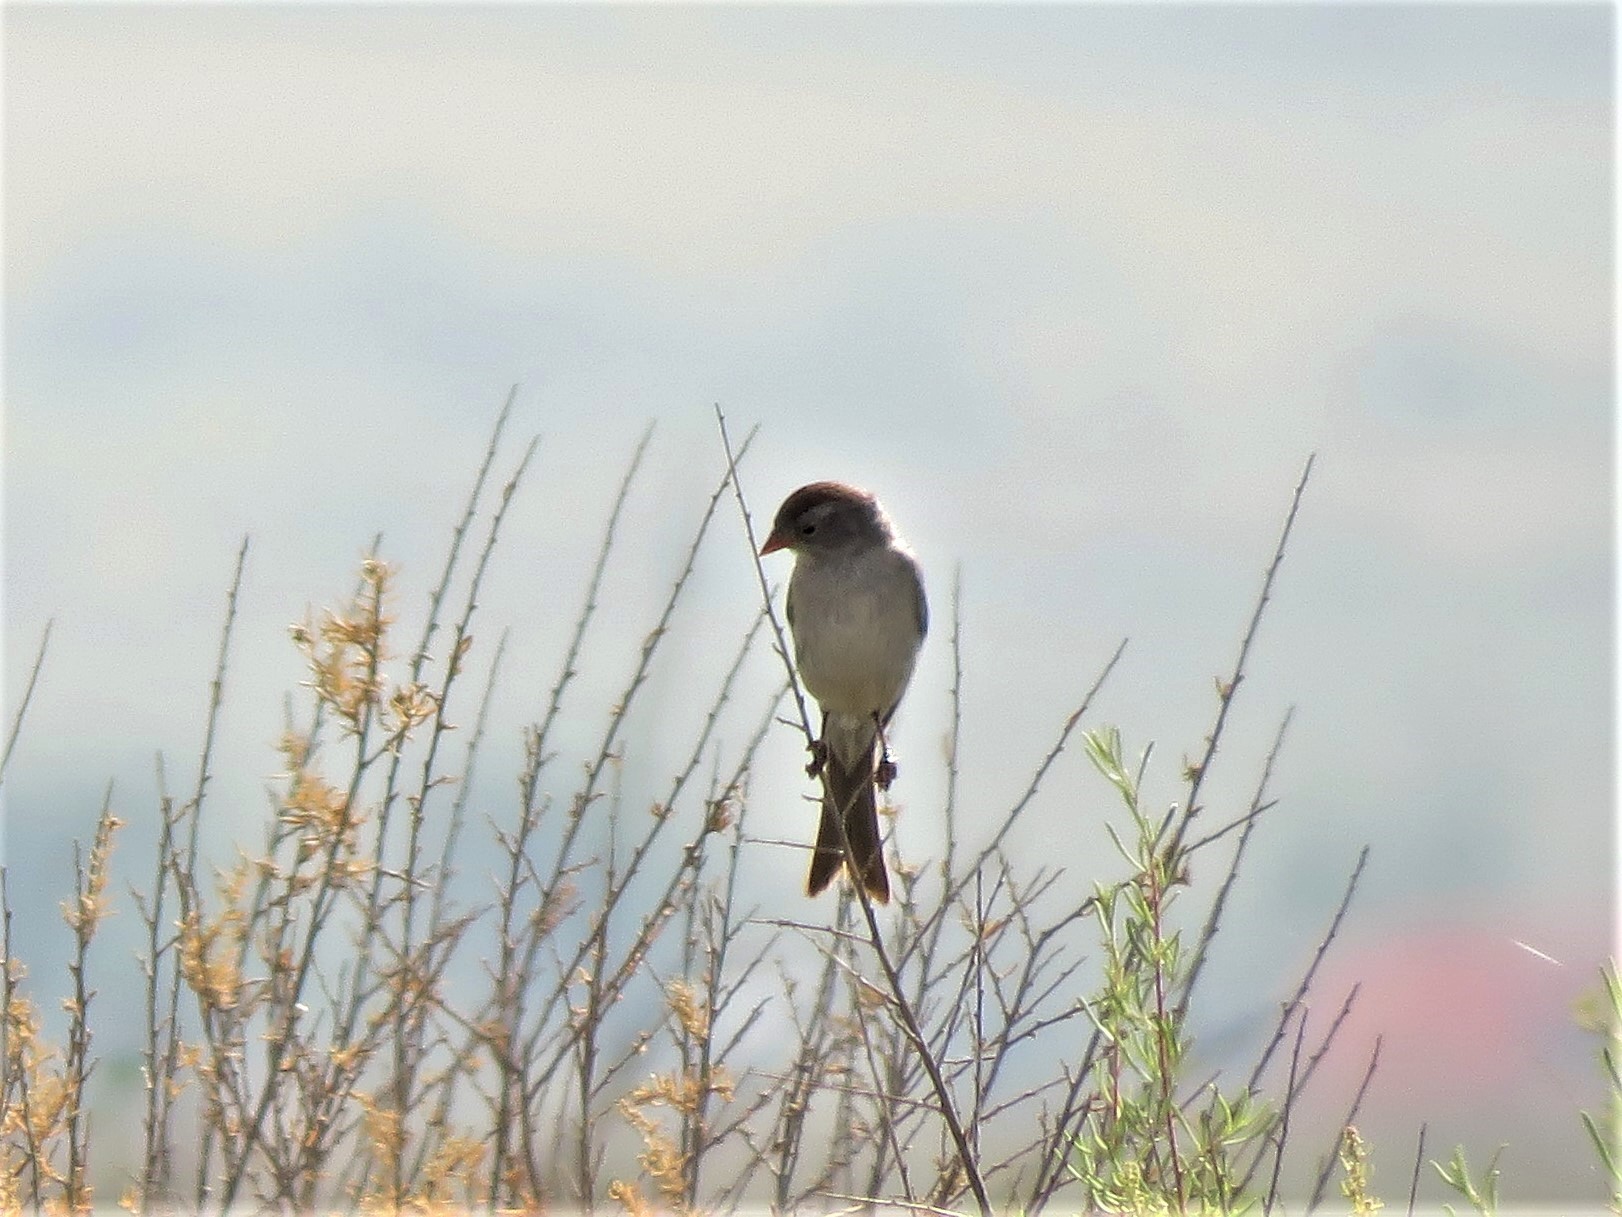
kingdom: Animalia
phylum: Chordata
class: Aves
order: Passeriformes
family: Passerellidae
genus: Spizella
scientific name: Spizella wortheni
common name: Worthen's sparrow
